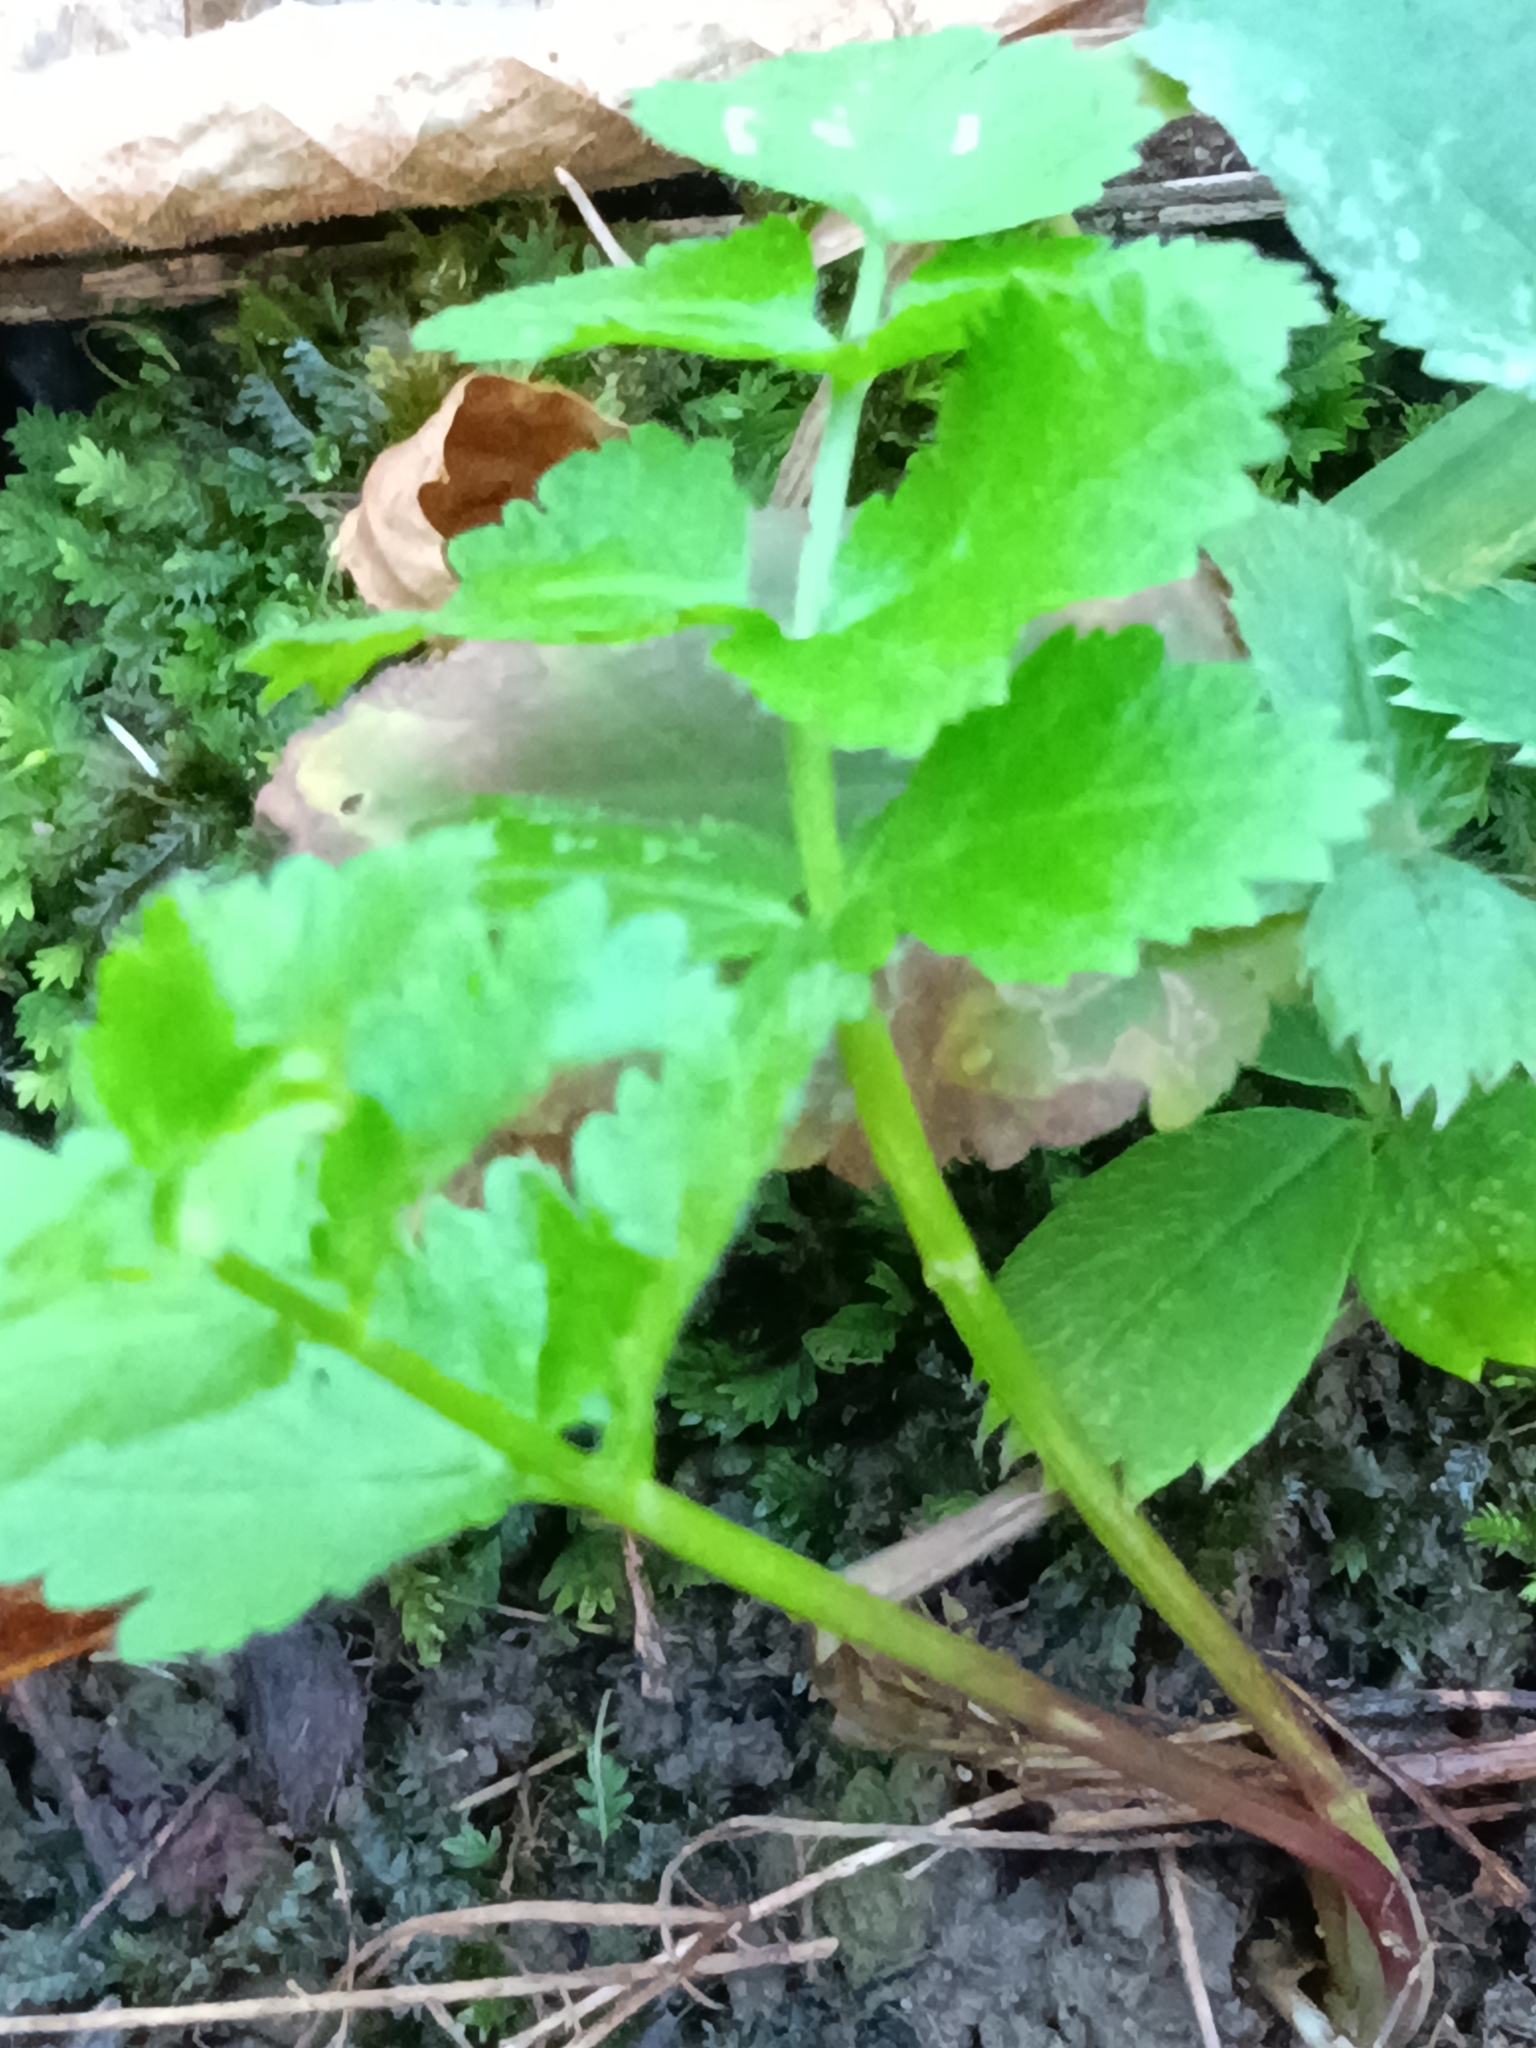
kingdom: Plantae
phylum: Tracheophyta
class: Magnoliopsida
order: Apiales
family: Apiaceae
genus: Pastinaca
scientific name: Pastinaca sativa
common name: Wild parsnip
